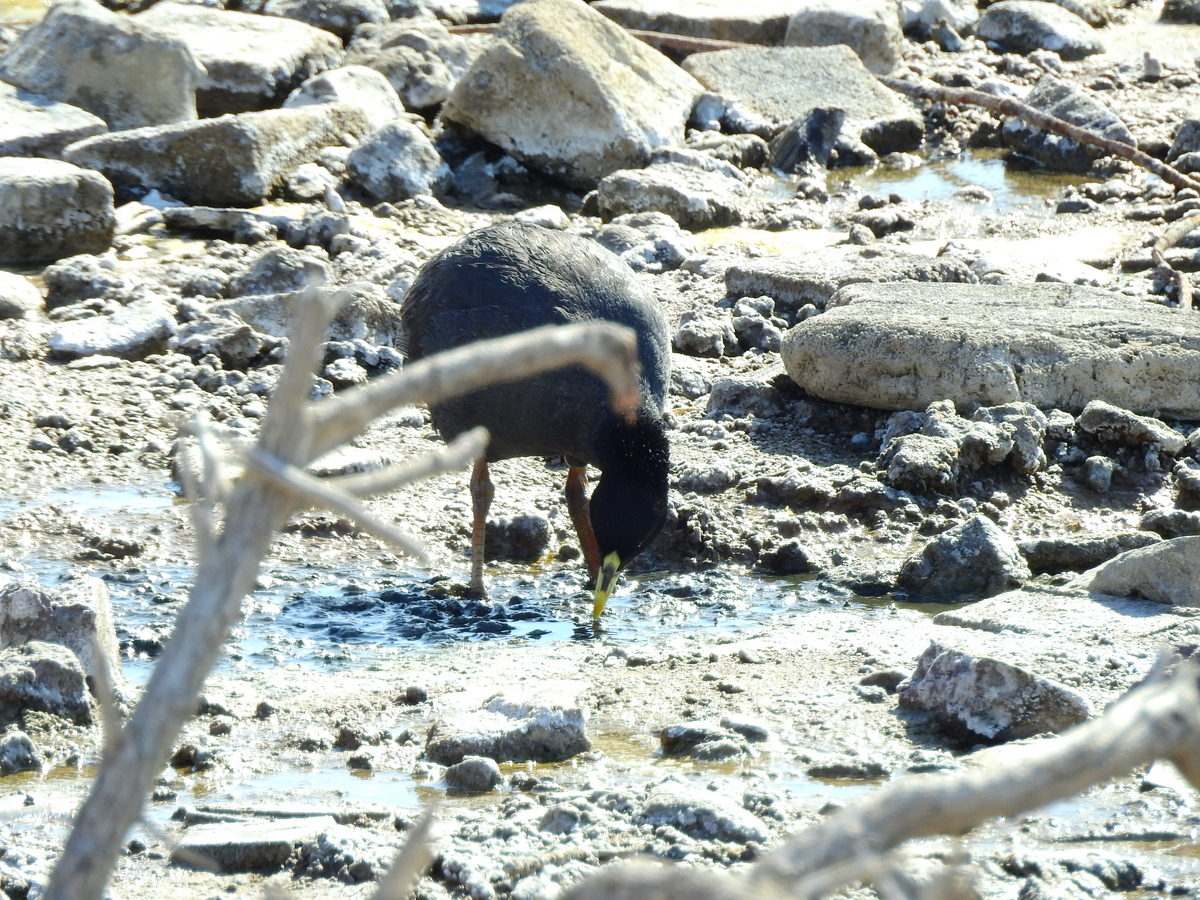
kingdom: Animalia
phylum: Chordata
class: Aves
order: Gruiformes
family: Rallidae
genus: Fulica
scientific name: Fulica armillata
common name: Red-gartered coot
